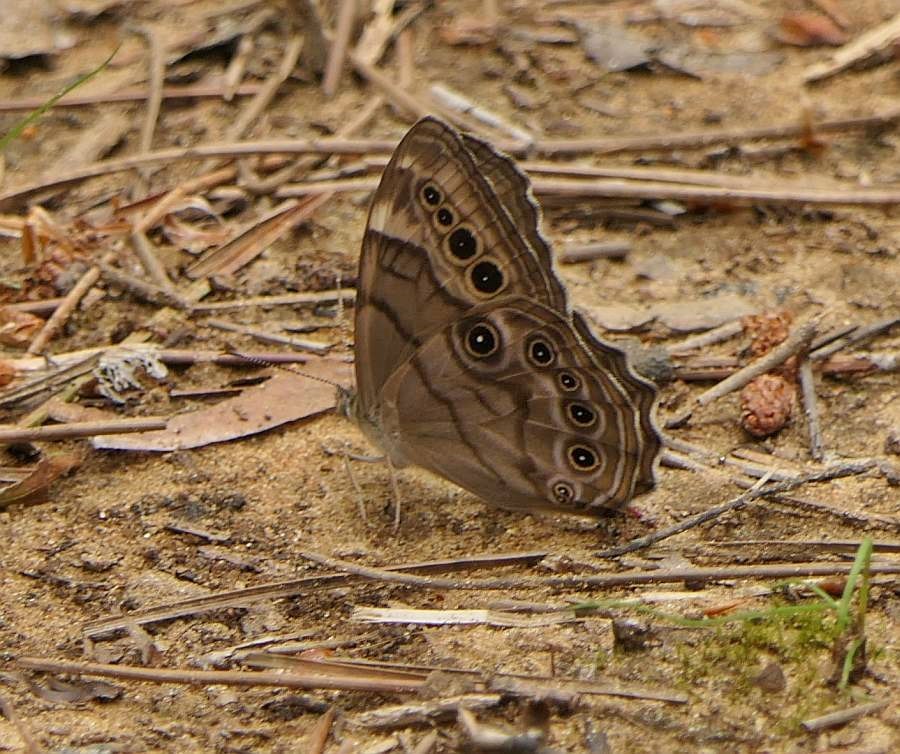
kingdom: Animalia
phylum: Arthropoda
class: Insecta
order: Lepidoptera
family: Nymphalidae
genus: Lethe
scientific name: Lethe anthedon
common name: Northern pearly-eye
